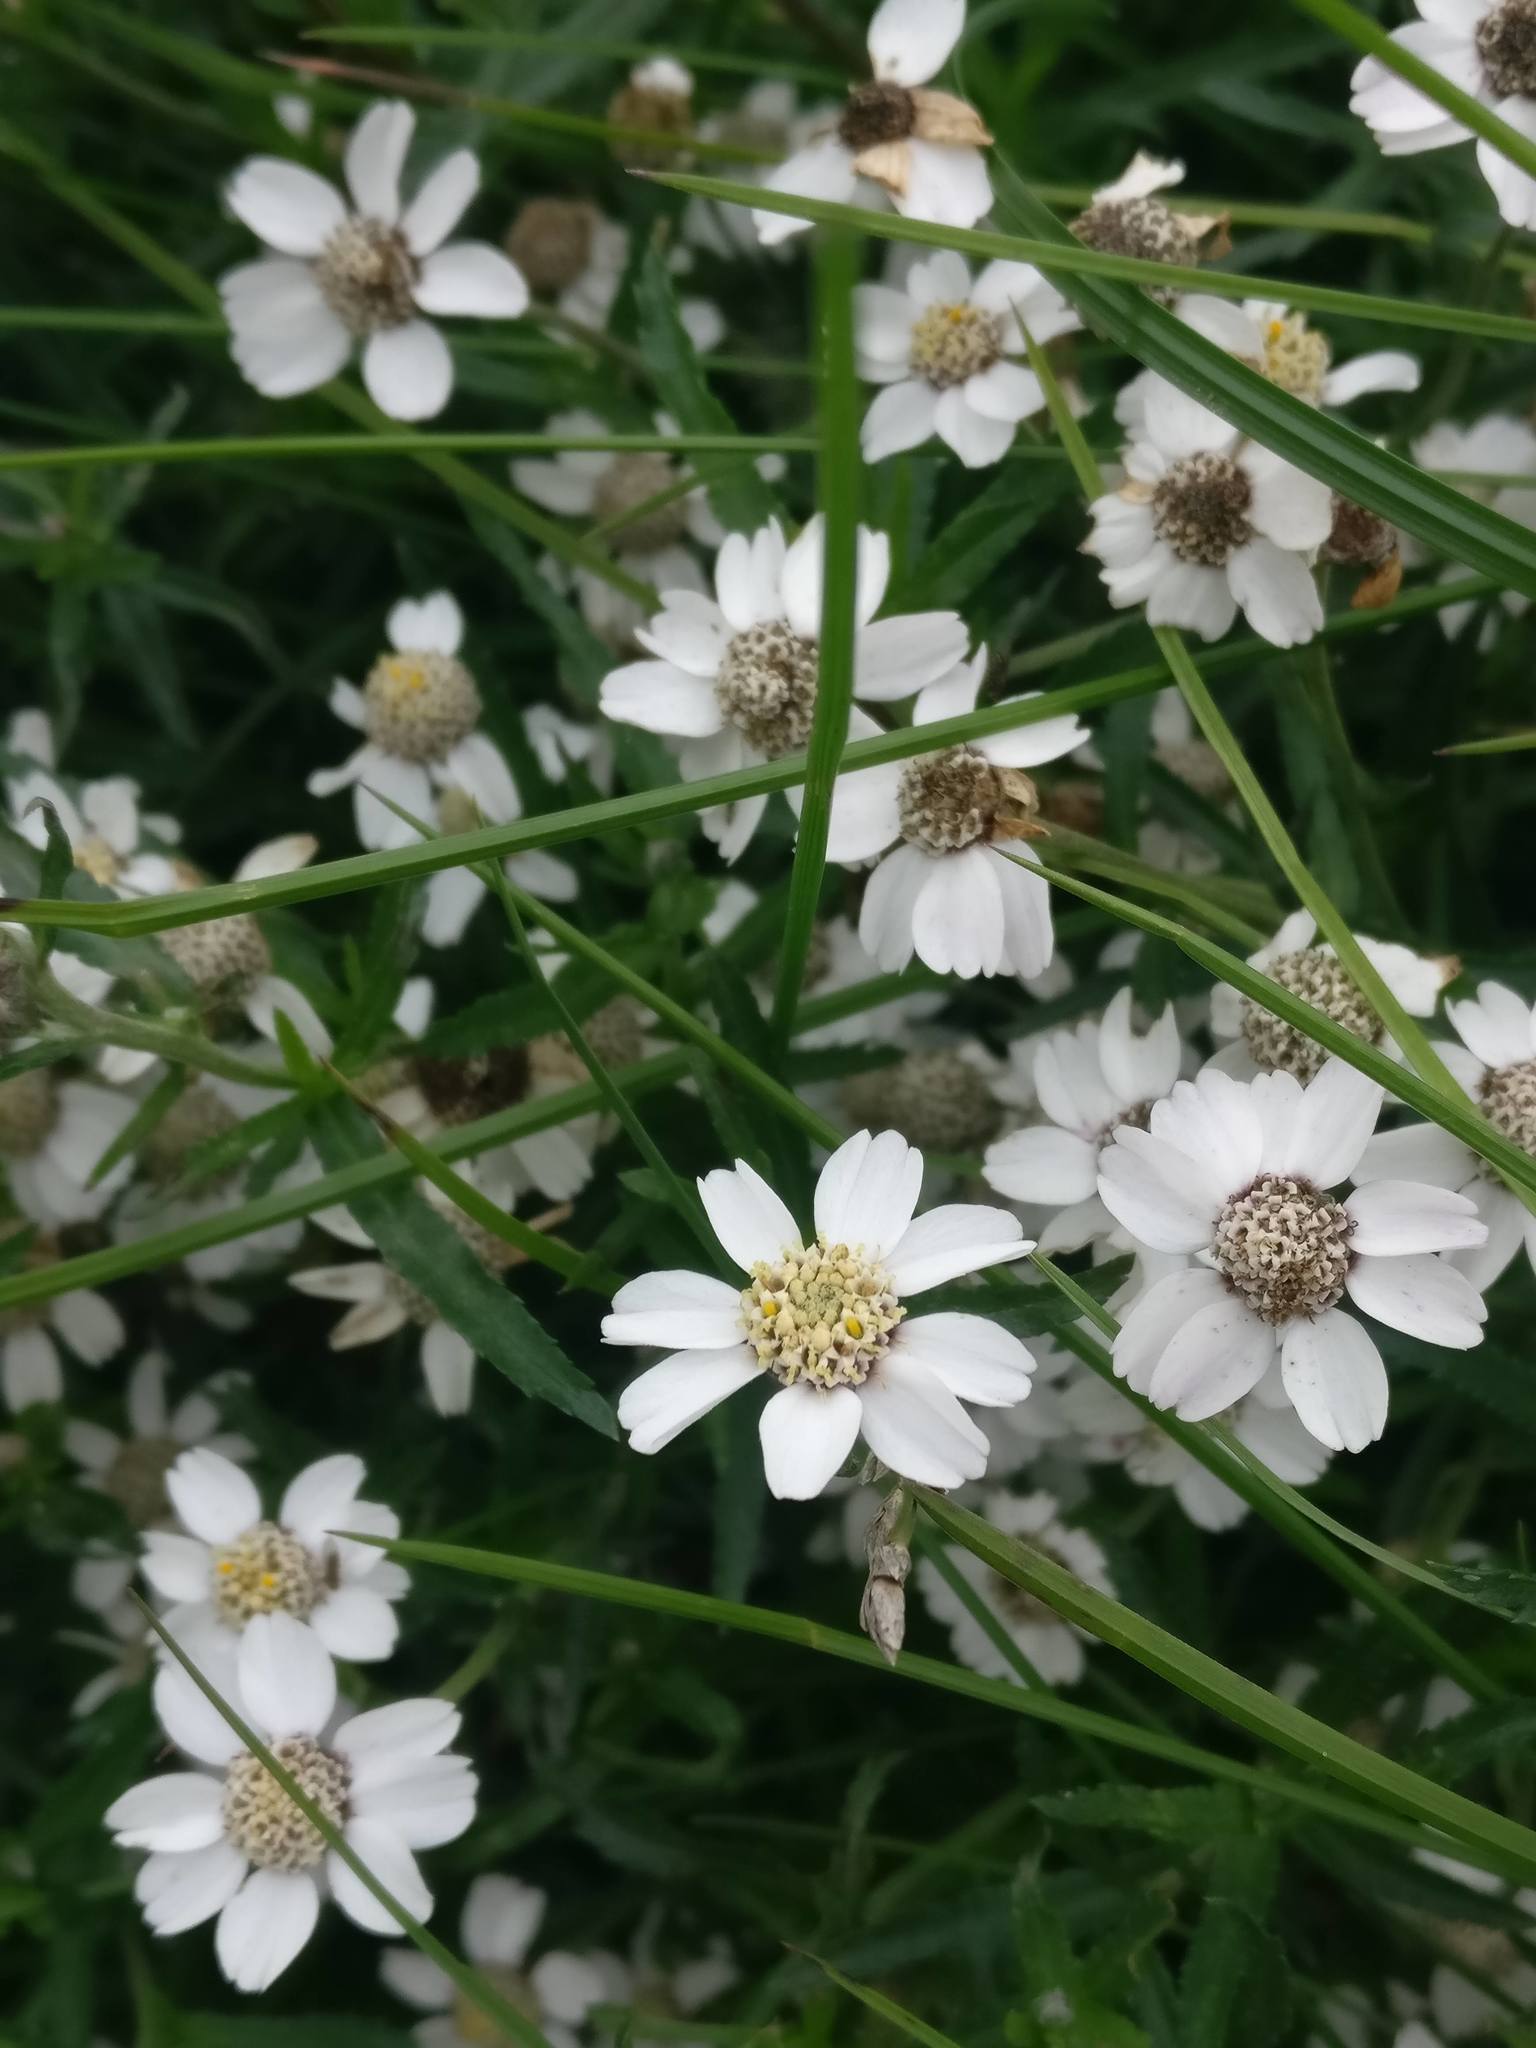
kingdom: Plantae
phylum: Tracheophyta
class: Magnoliopsida
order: Asterales
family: Asteraceae
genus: Achillea
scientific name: Achillea ptarmica
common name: Sneezeweed
